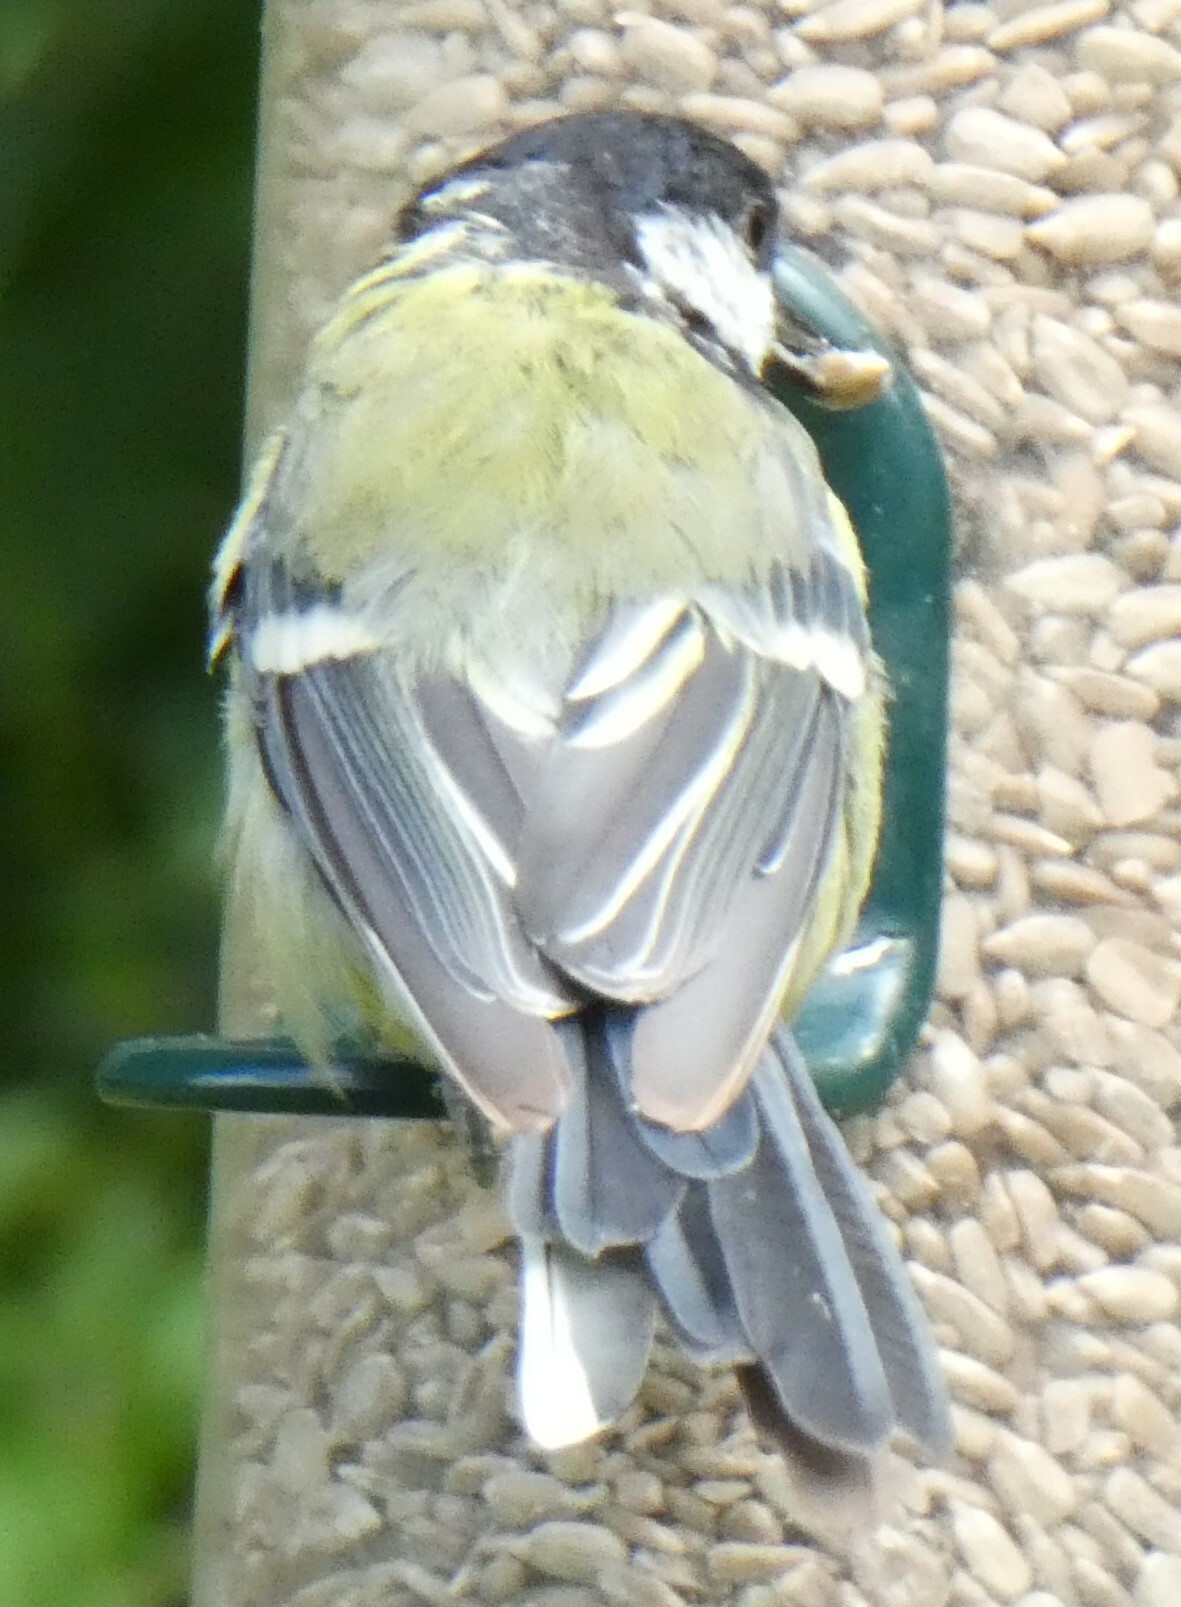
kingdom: Animalia
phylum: Chordata
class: Aves
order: Passeriformes
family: Paridae
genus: Parus
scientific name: Parus major
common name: Great tit
